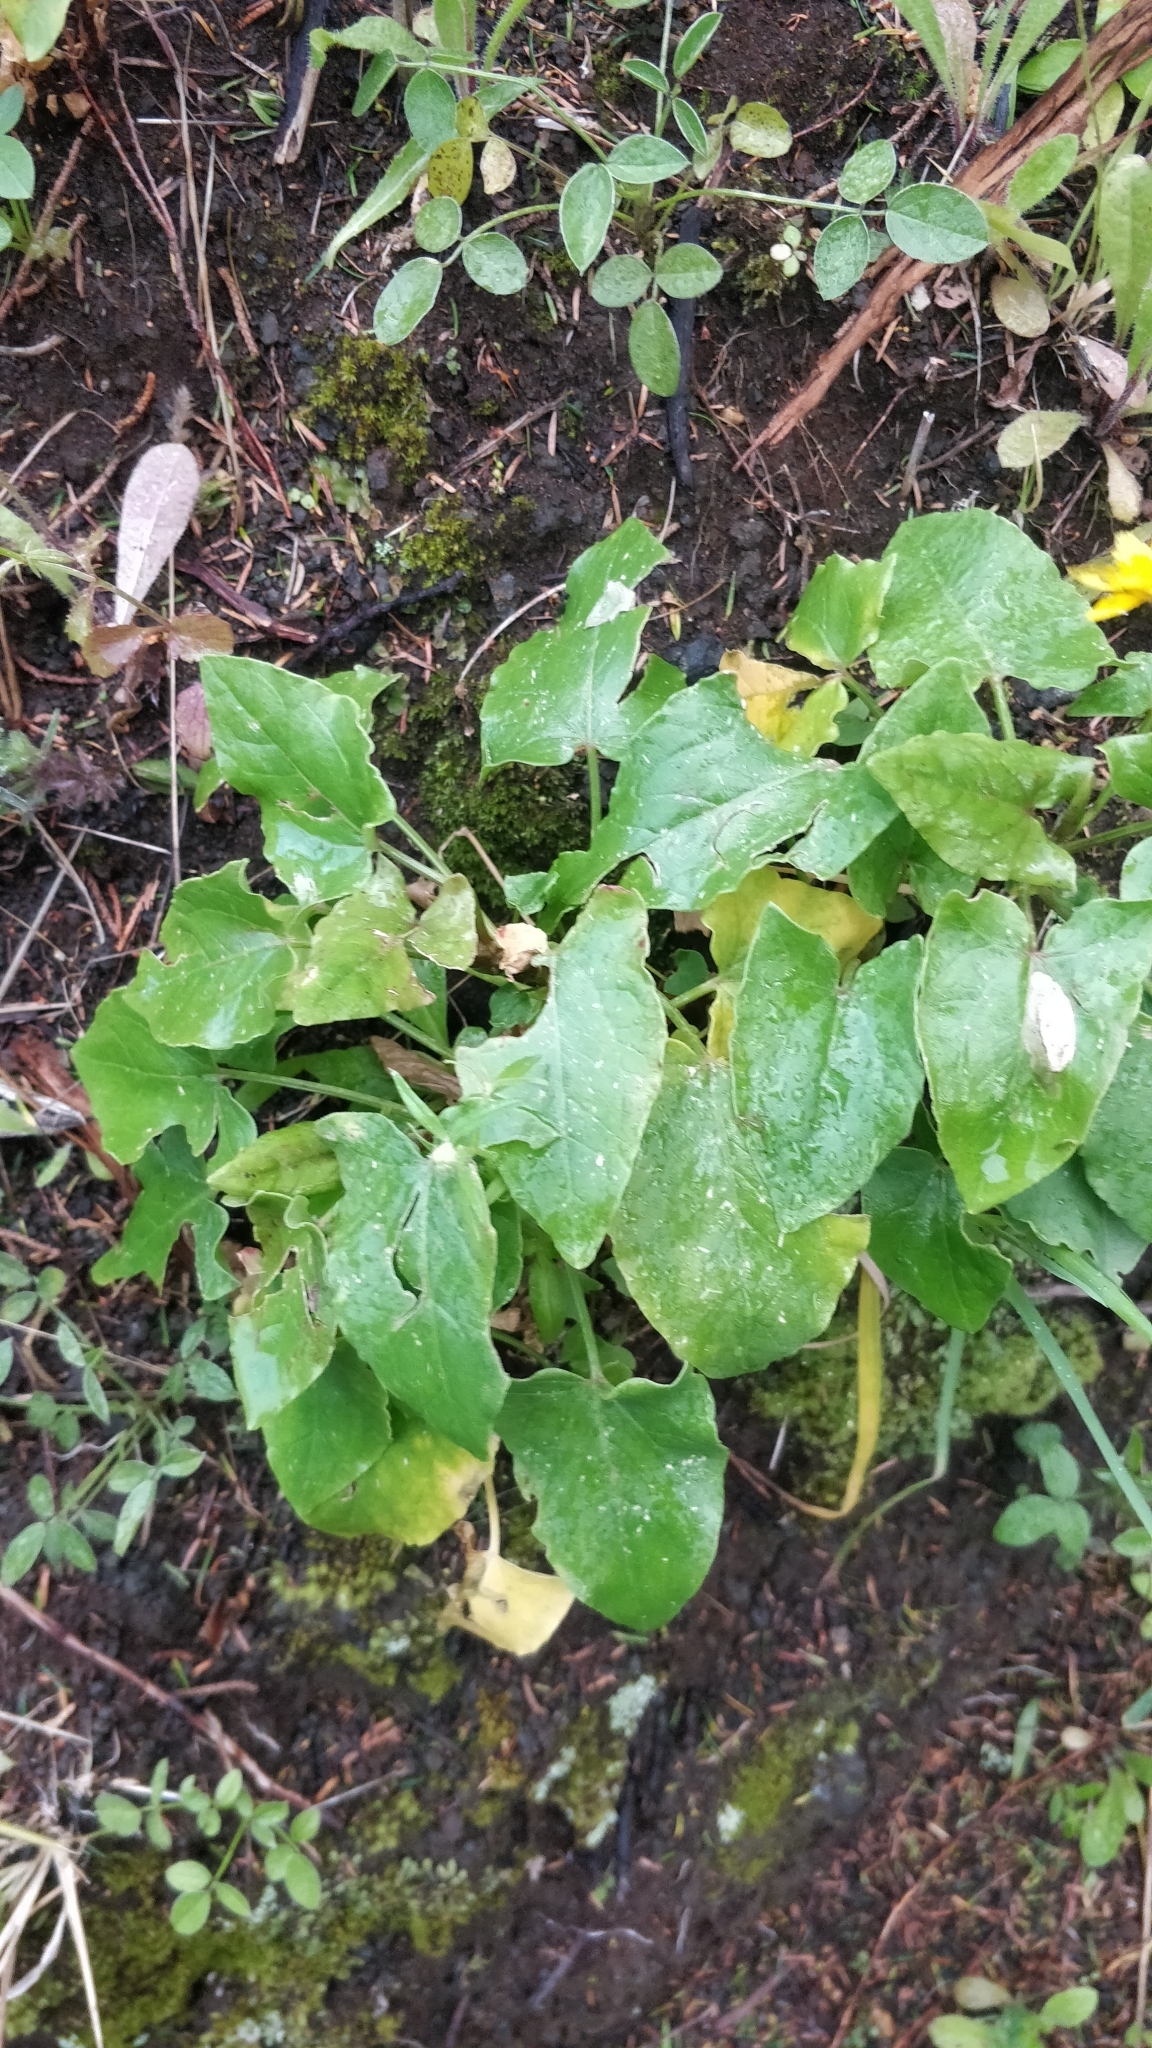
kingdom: Plantae
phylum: Tracheophyta
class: Magnoliopsida
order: Caryophyllales
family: Polygonaceae
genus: Rumex
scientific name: Rumex maderensis
